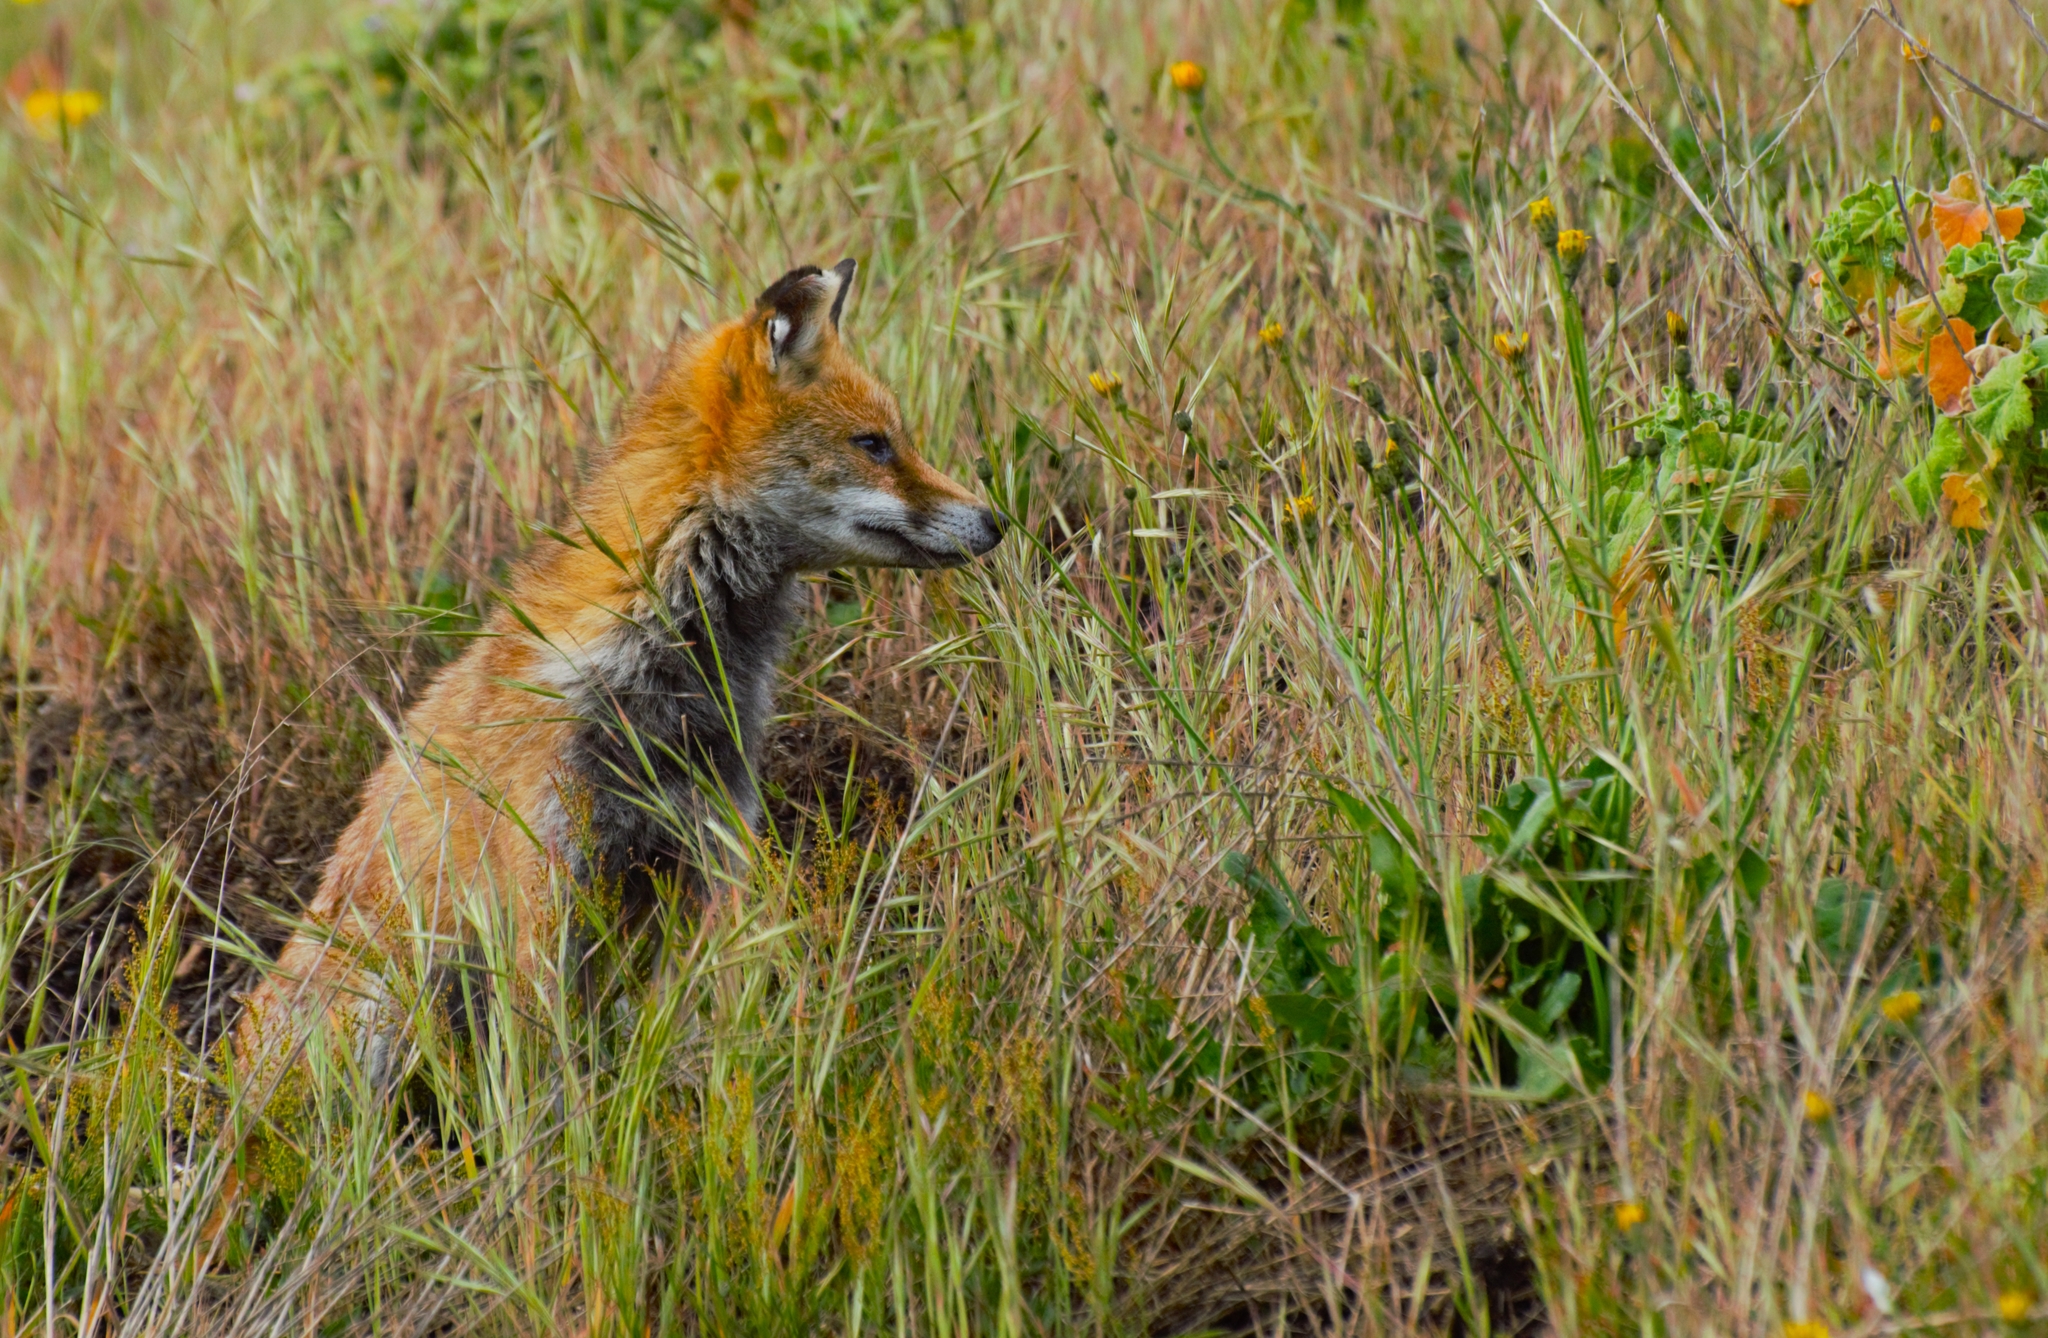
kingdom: Animalia
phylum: Chordata
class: Mammalia
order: Carnivora
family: Canidae
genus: Vulpes
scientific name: Vulpes vulpes
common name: Red fox
